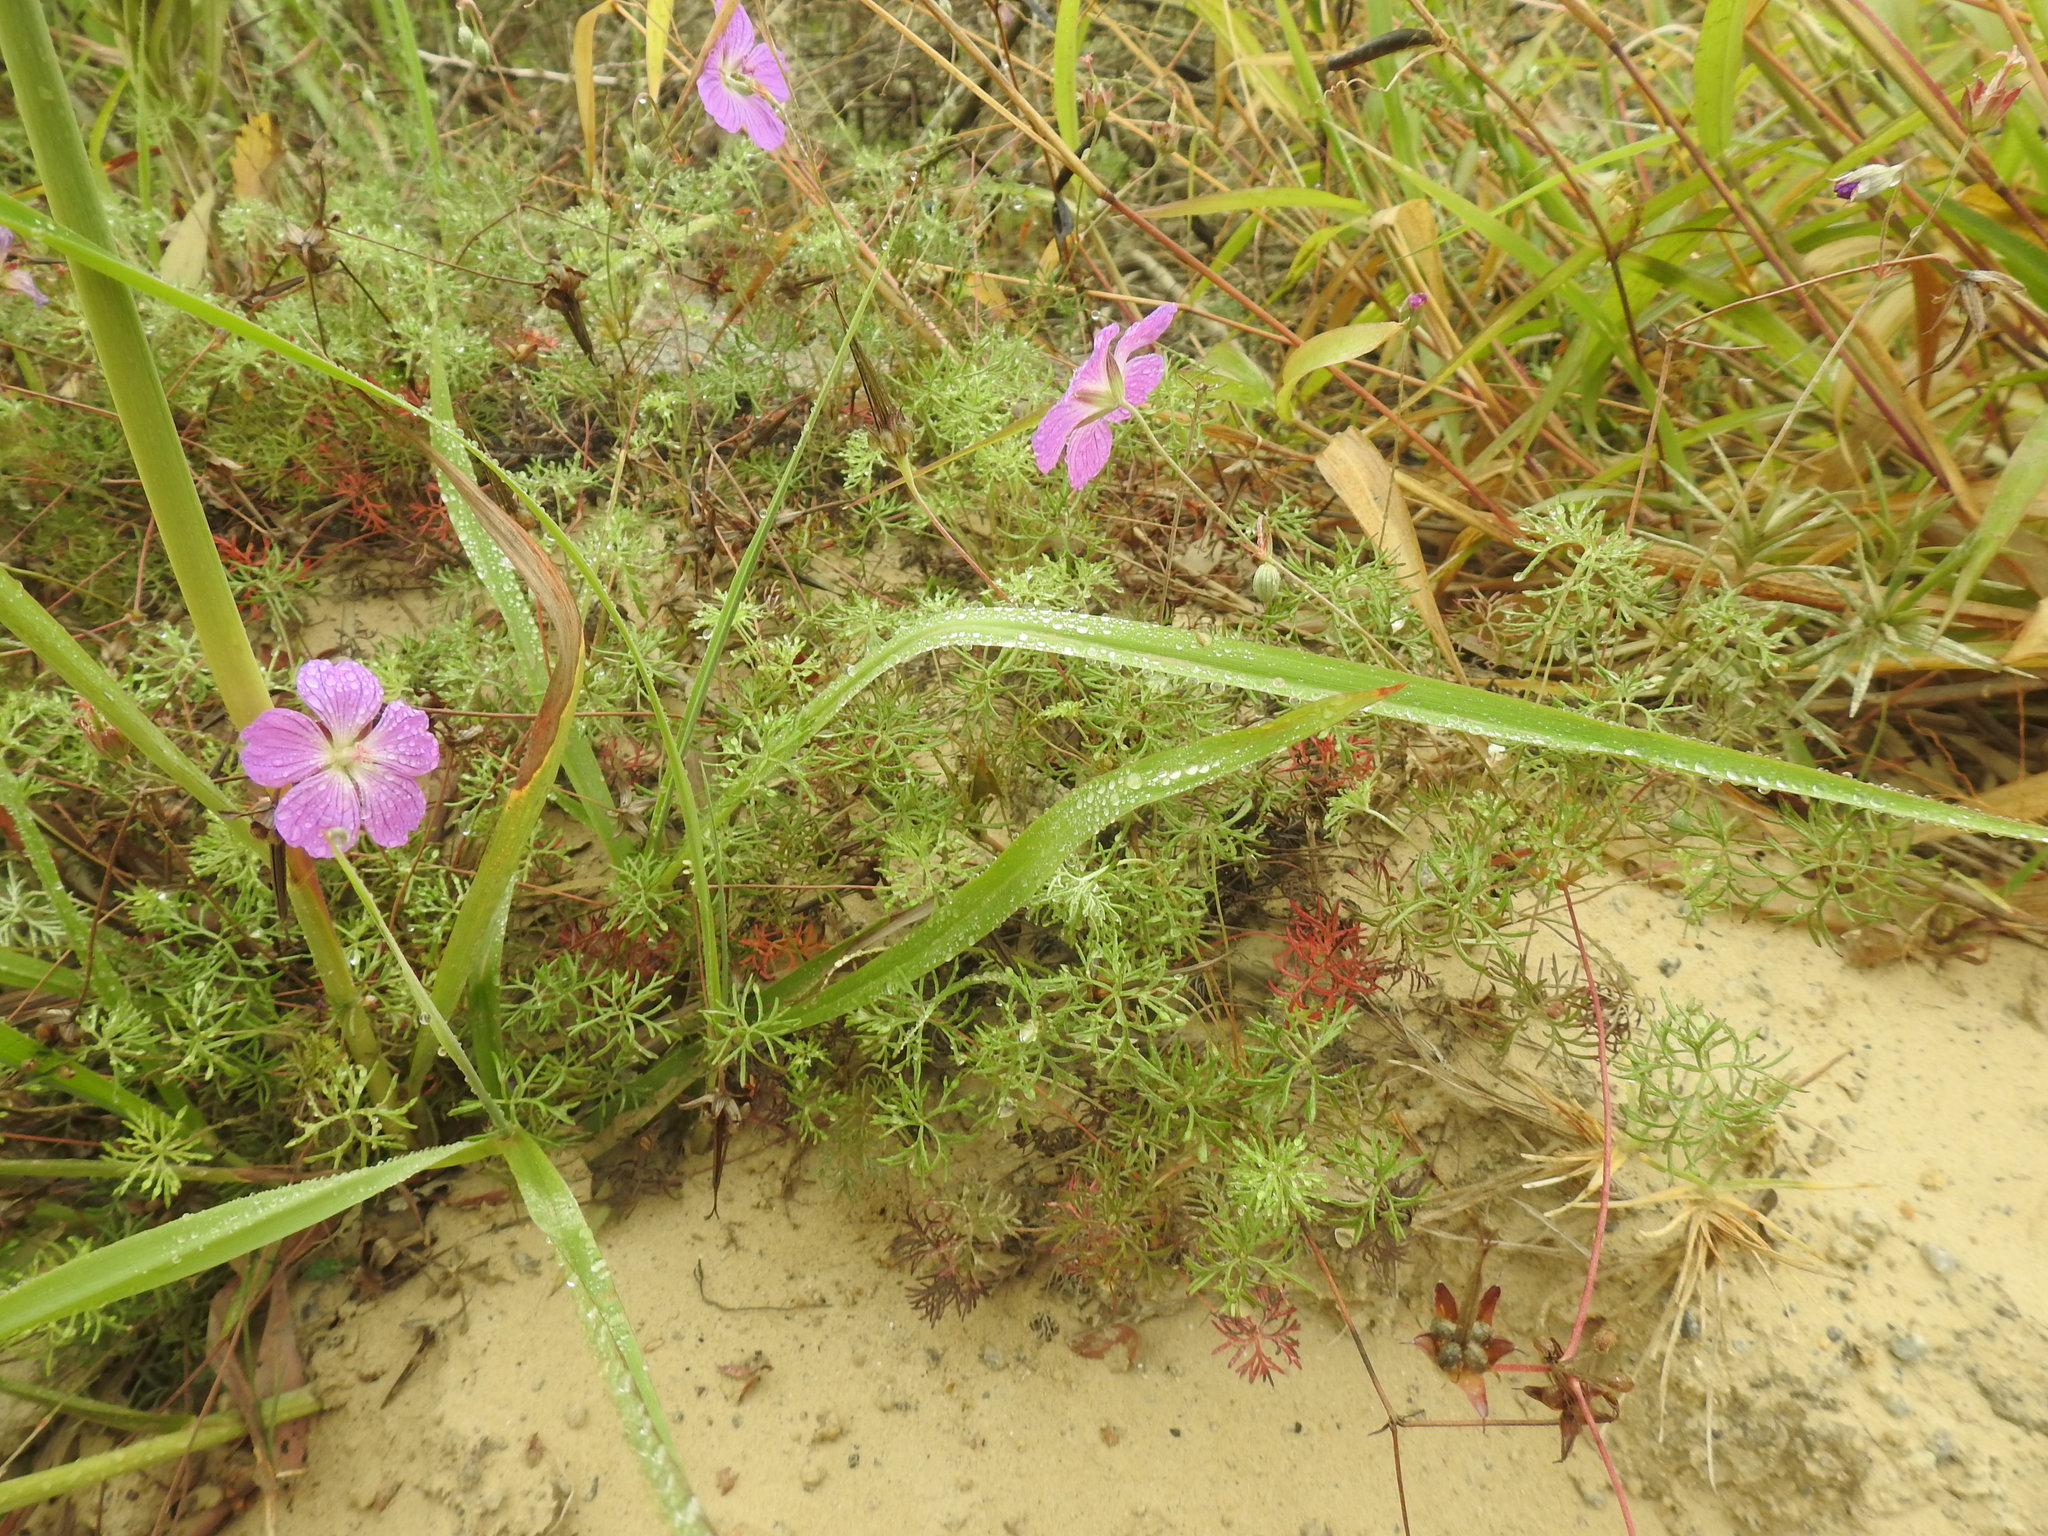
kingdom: Plantae
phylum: Tracheophyta
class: Magnoliopsida
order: Geraniales
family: Geraniaceae
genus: Geranium
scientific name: Geranium incanum
